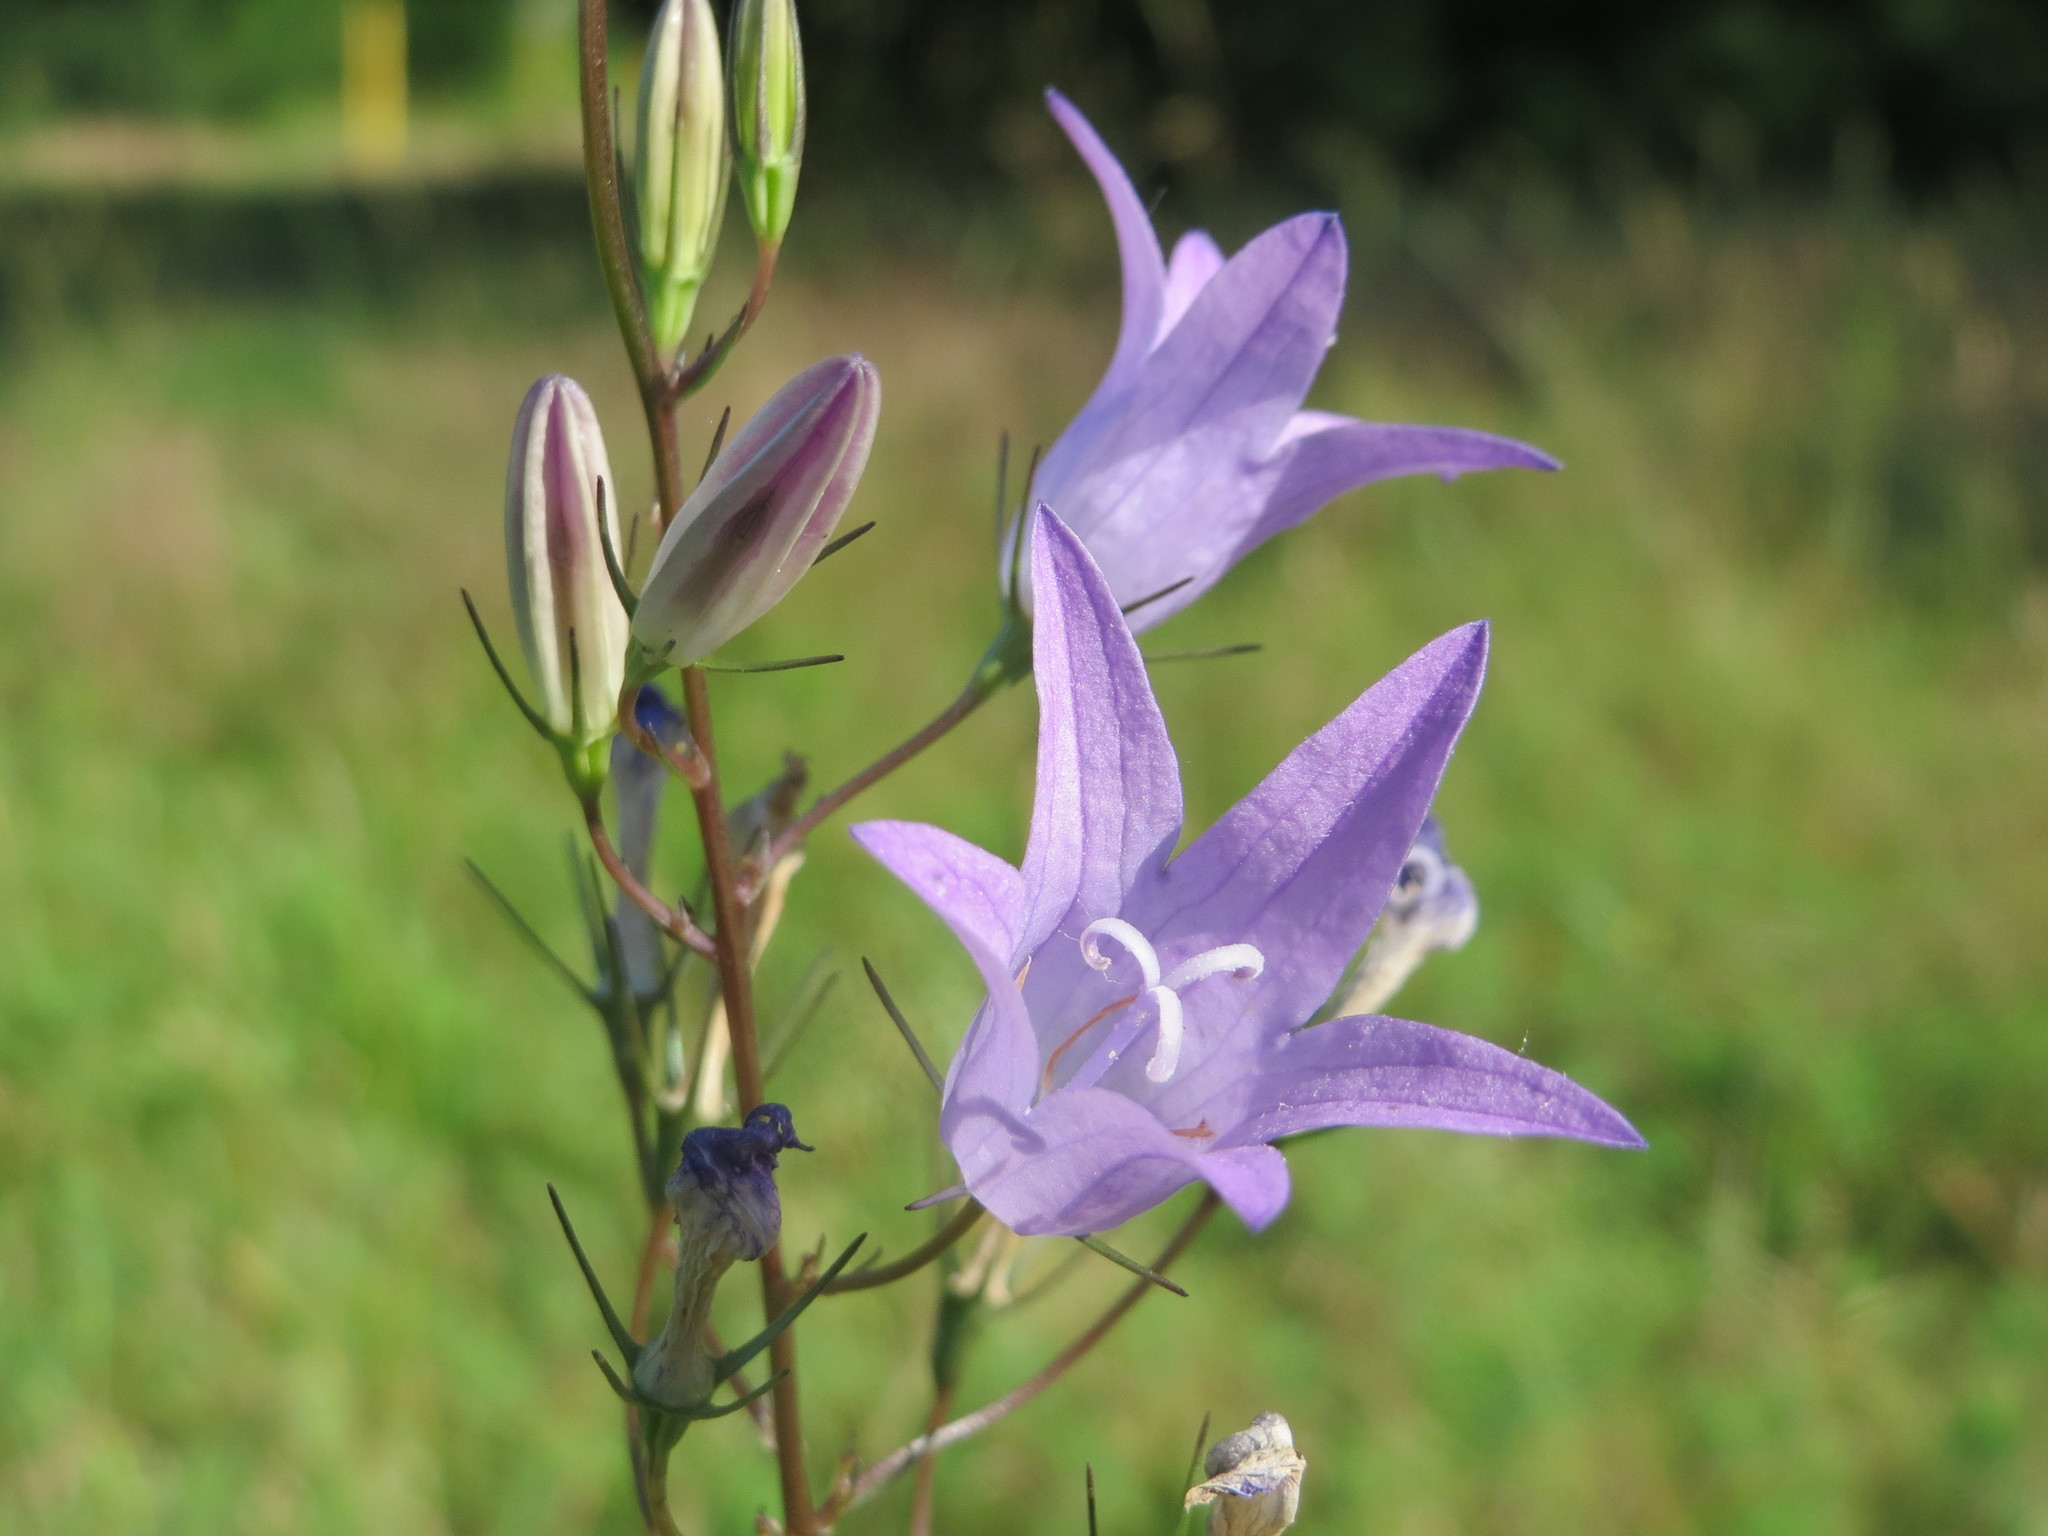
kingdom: Plantae
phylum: Tracheophyta
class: Magnoliopsida
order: Asterales
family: Campanulaceae
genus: Campanula
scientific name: Campanula rapunculus
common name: Rampion bellflower
